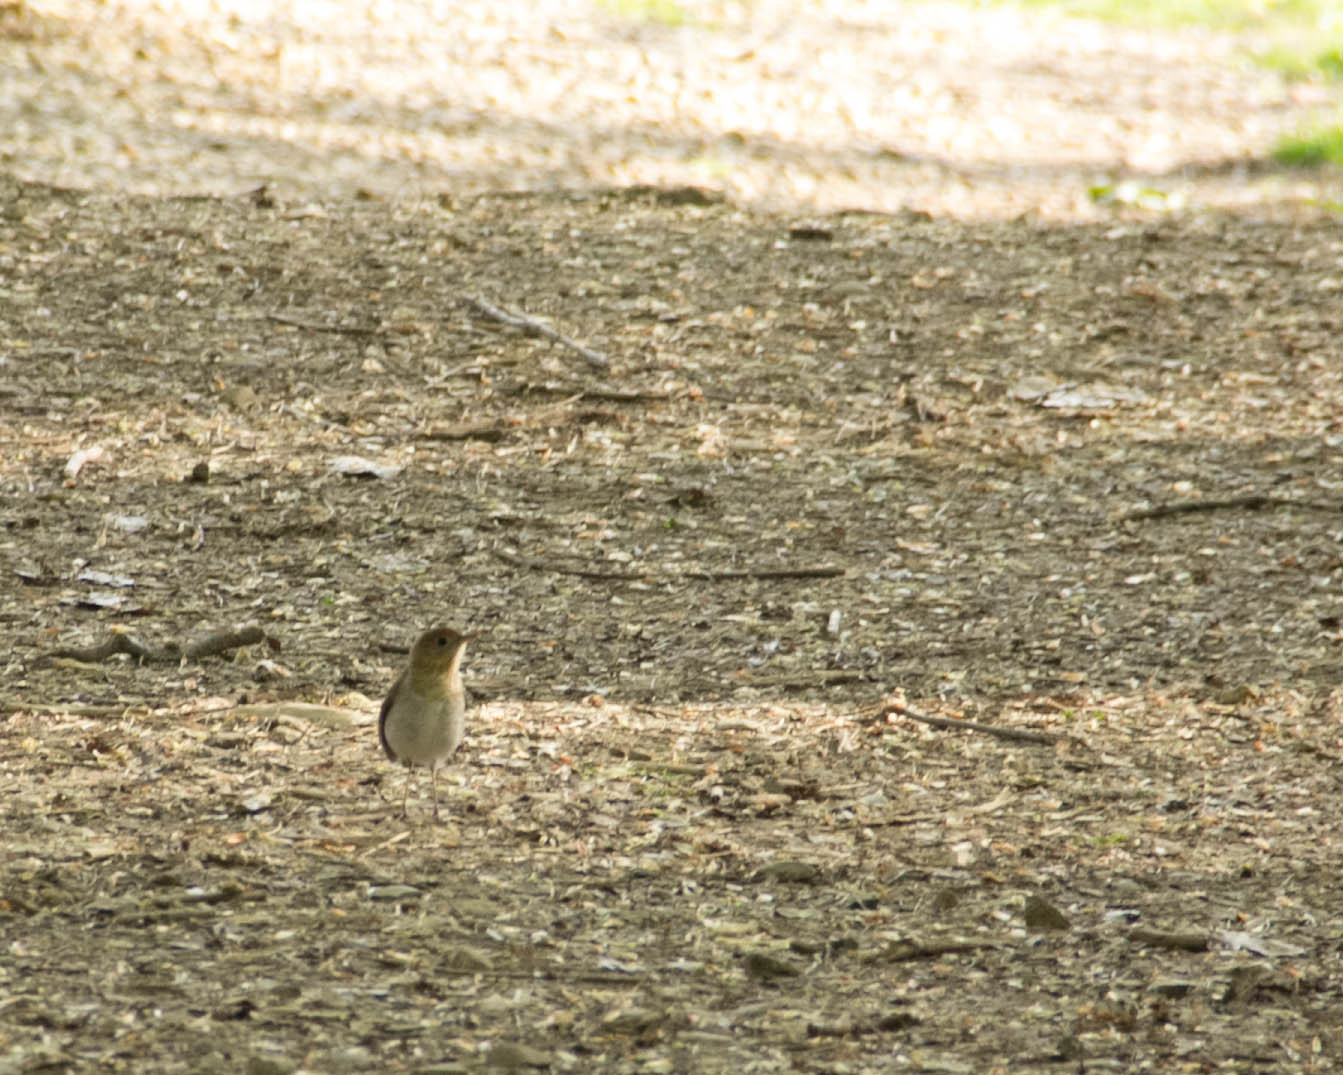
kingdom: Animalia
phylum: Chordata
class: Aves
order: Passeriformes
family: Turdidae
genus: Catharus
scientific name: Catharus fuscescens
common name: Veery
